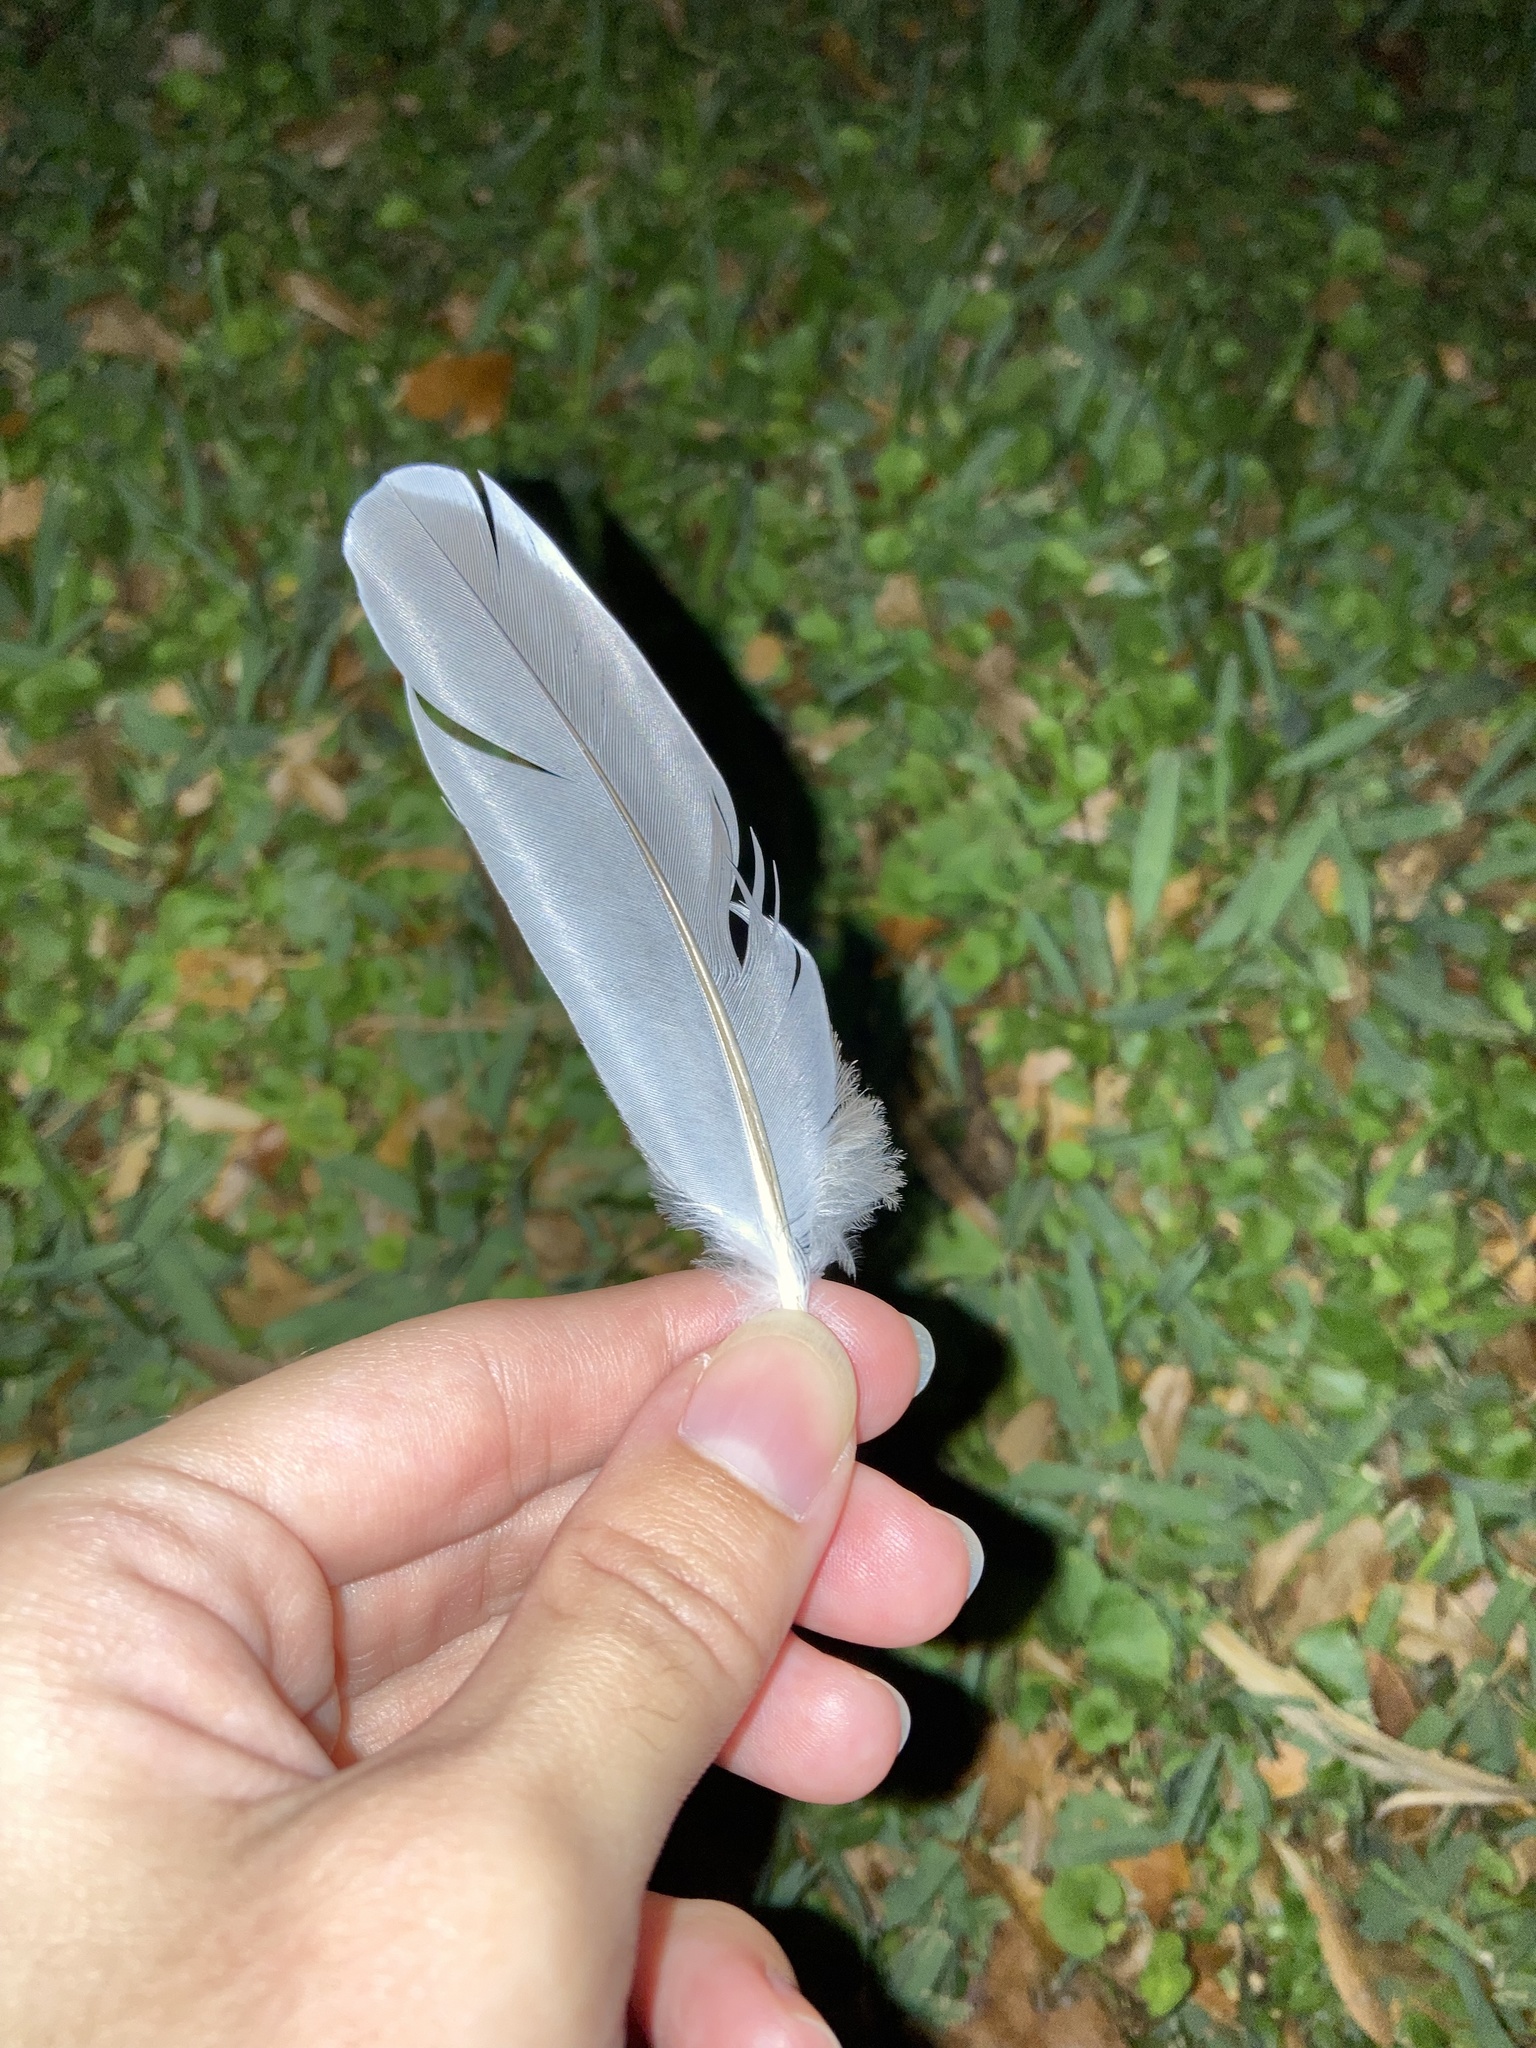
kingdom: Animalia
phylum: Chordata
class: Aves
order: Columbiformes
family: Columbidae
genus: Zenaida
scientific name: Zenaida asiatica
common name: White-winged dove
